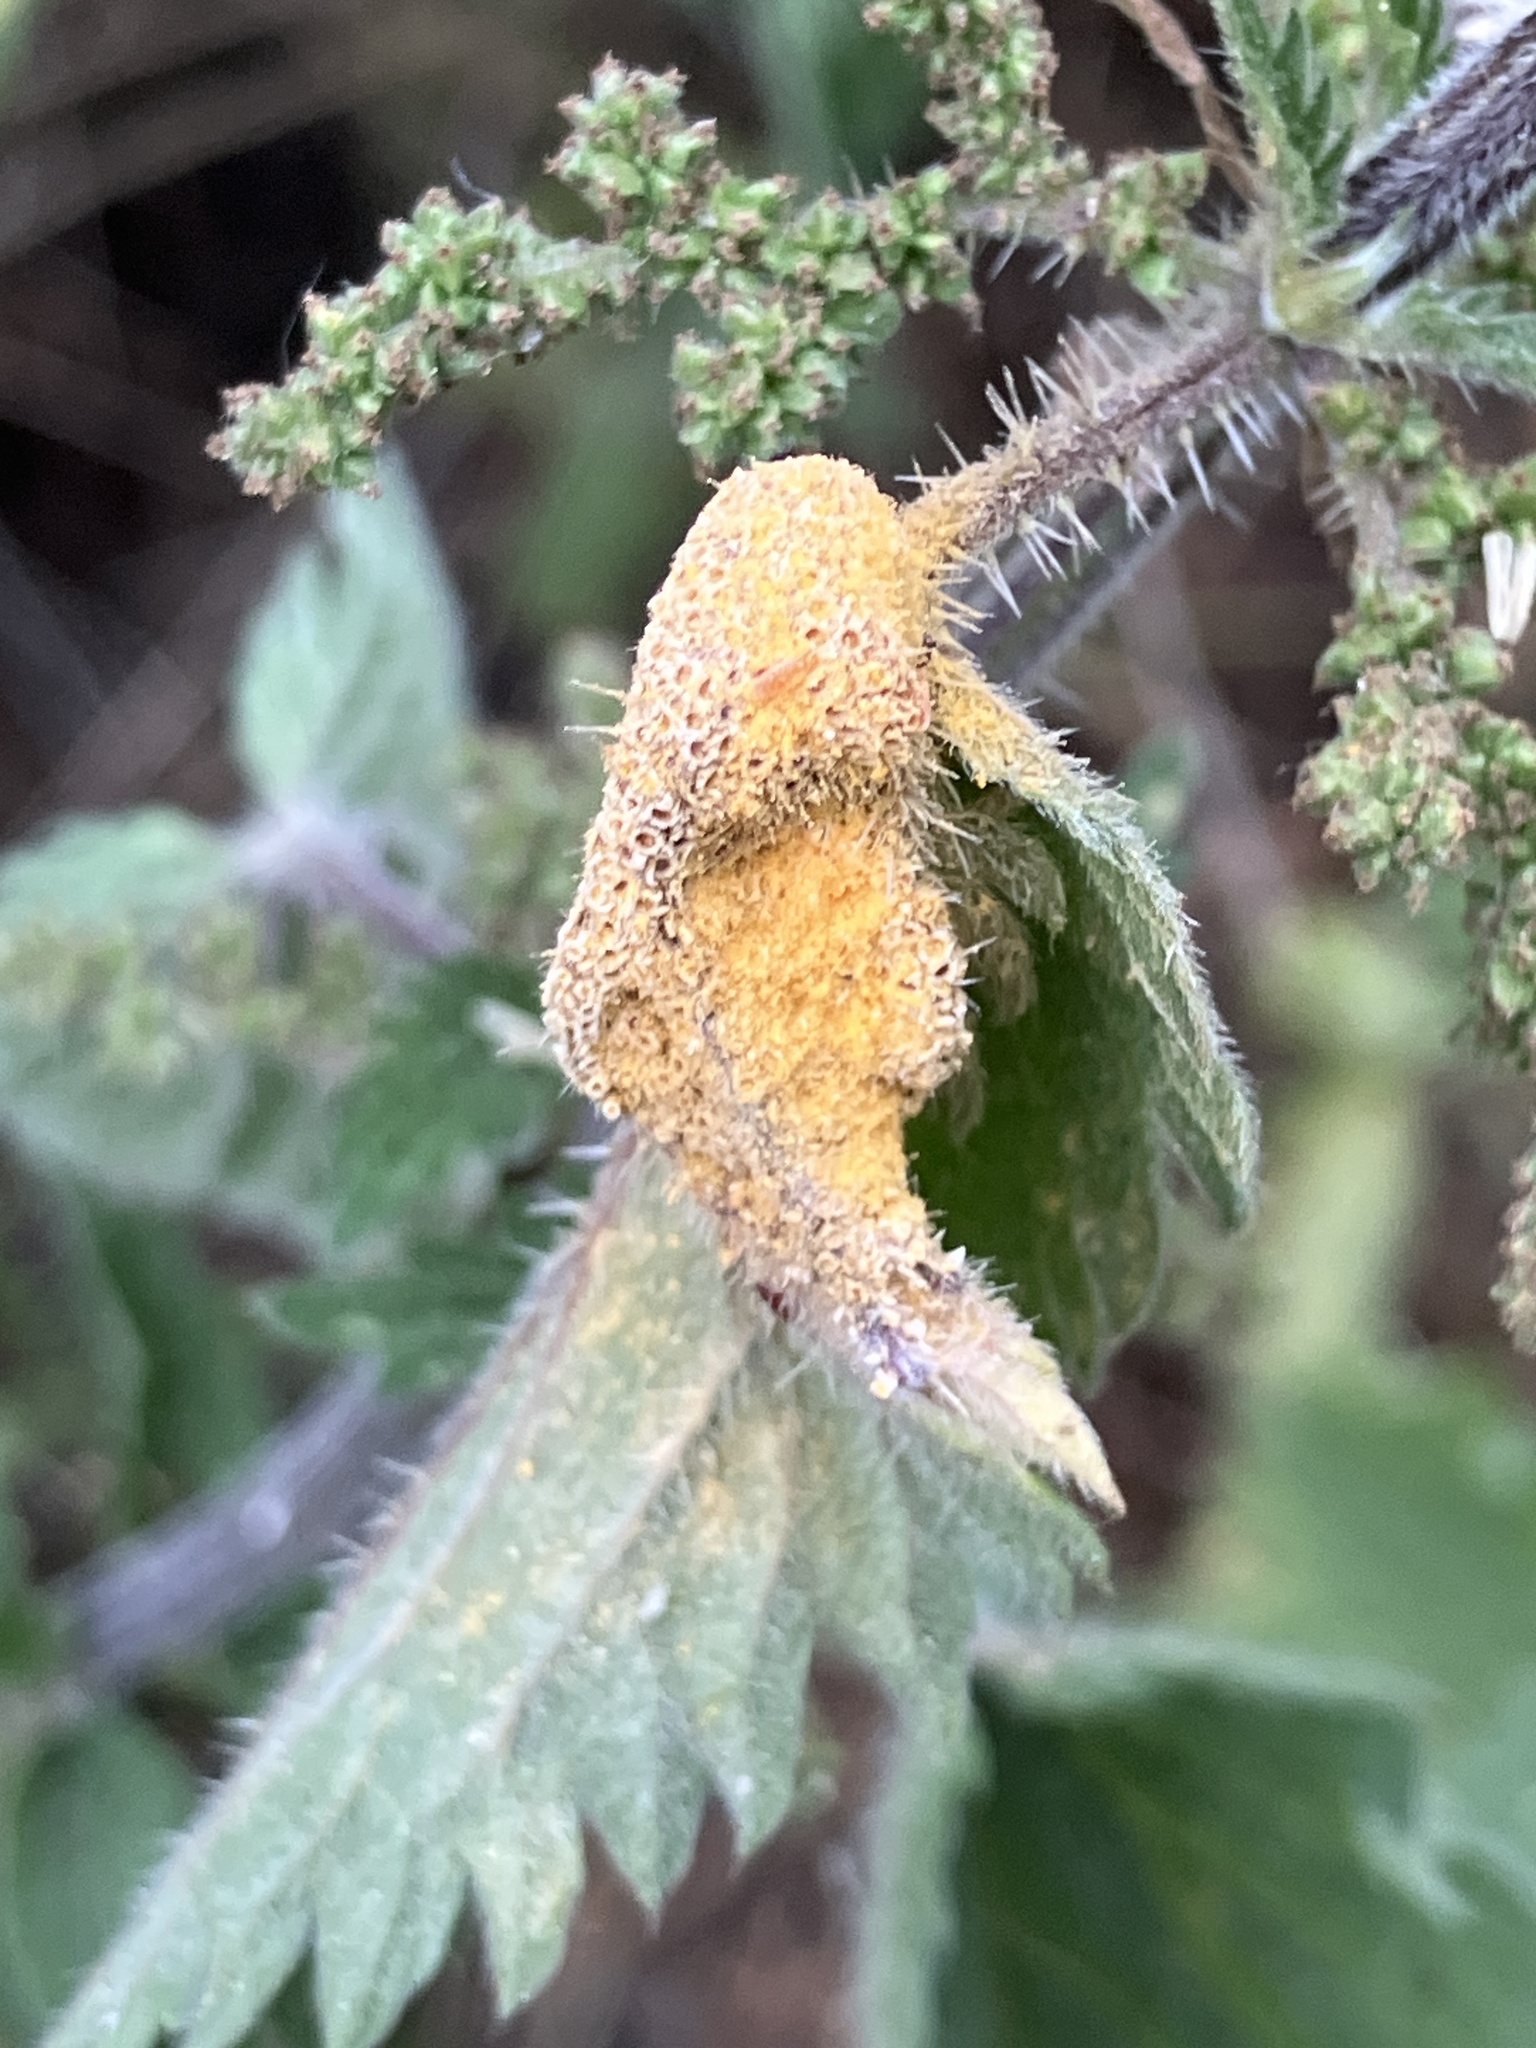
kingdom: Fungi
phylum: Basidiomycota
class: Pucciniomycetes
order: Pucciniales
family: Pucciniaceae
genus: Puccinia
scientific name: Puccinia urticata
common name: Nettle clustercup rust fungus
